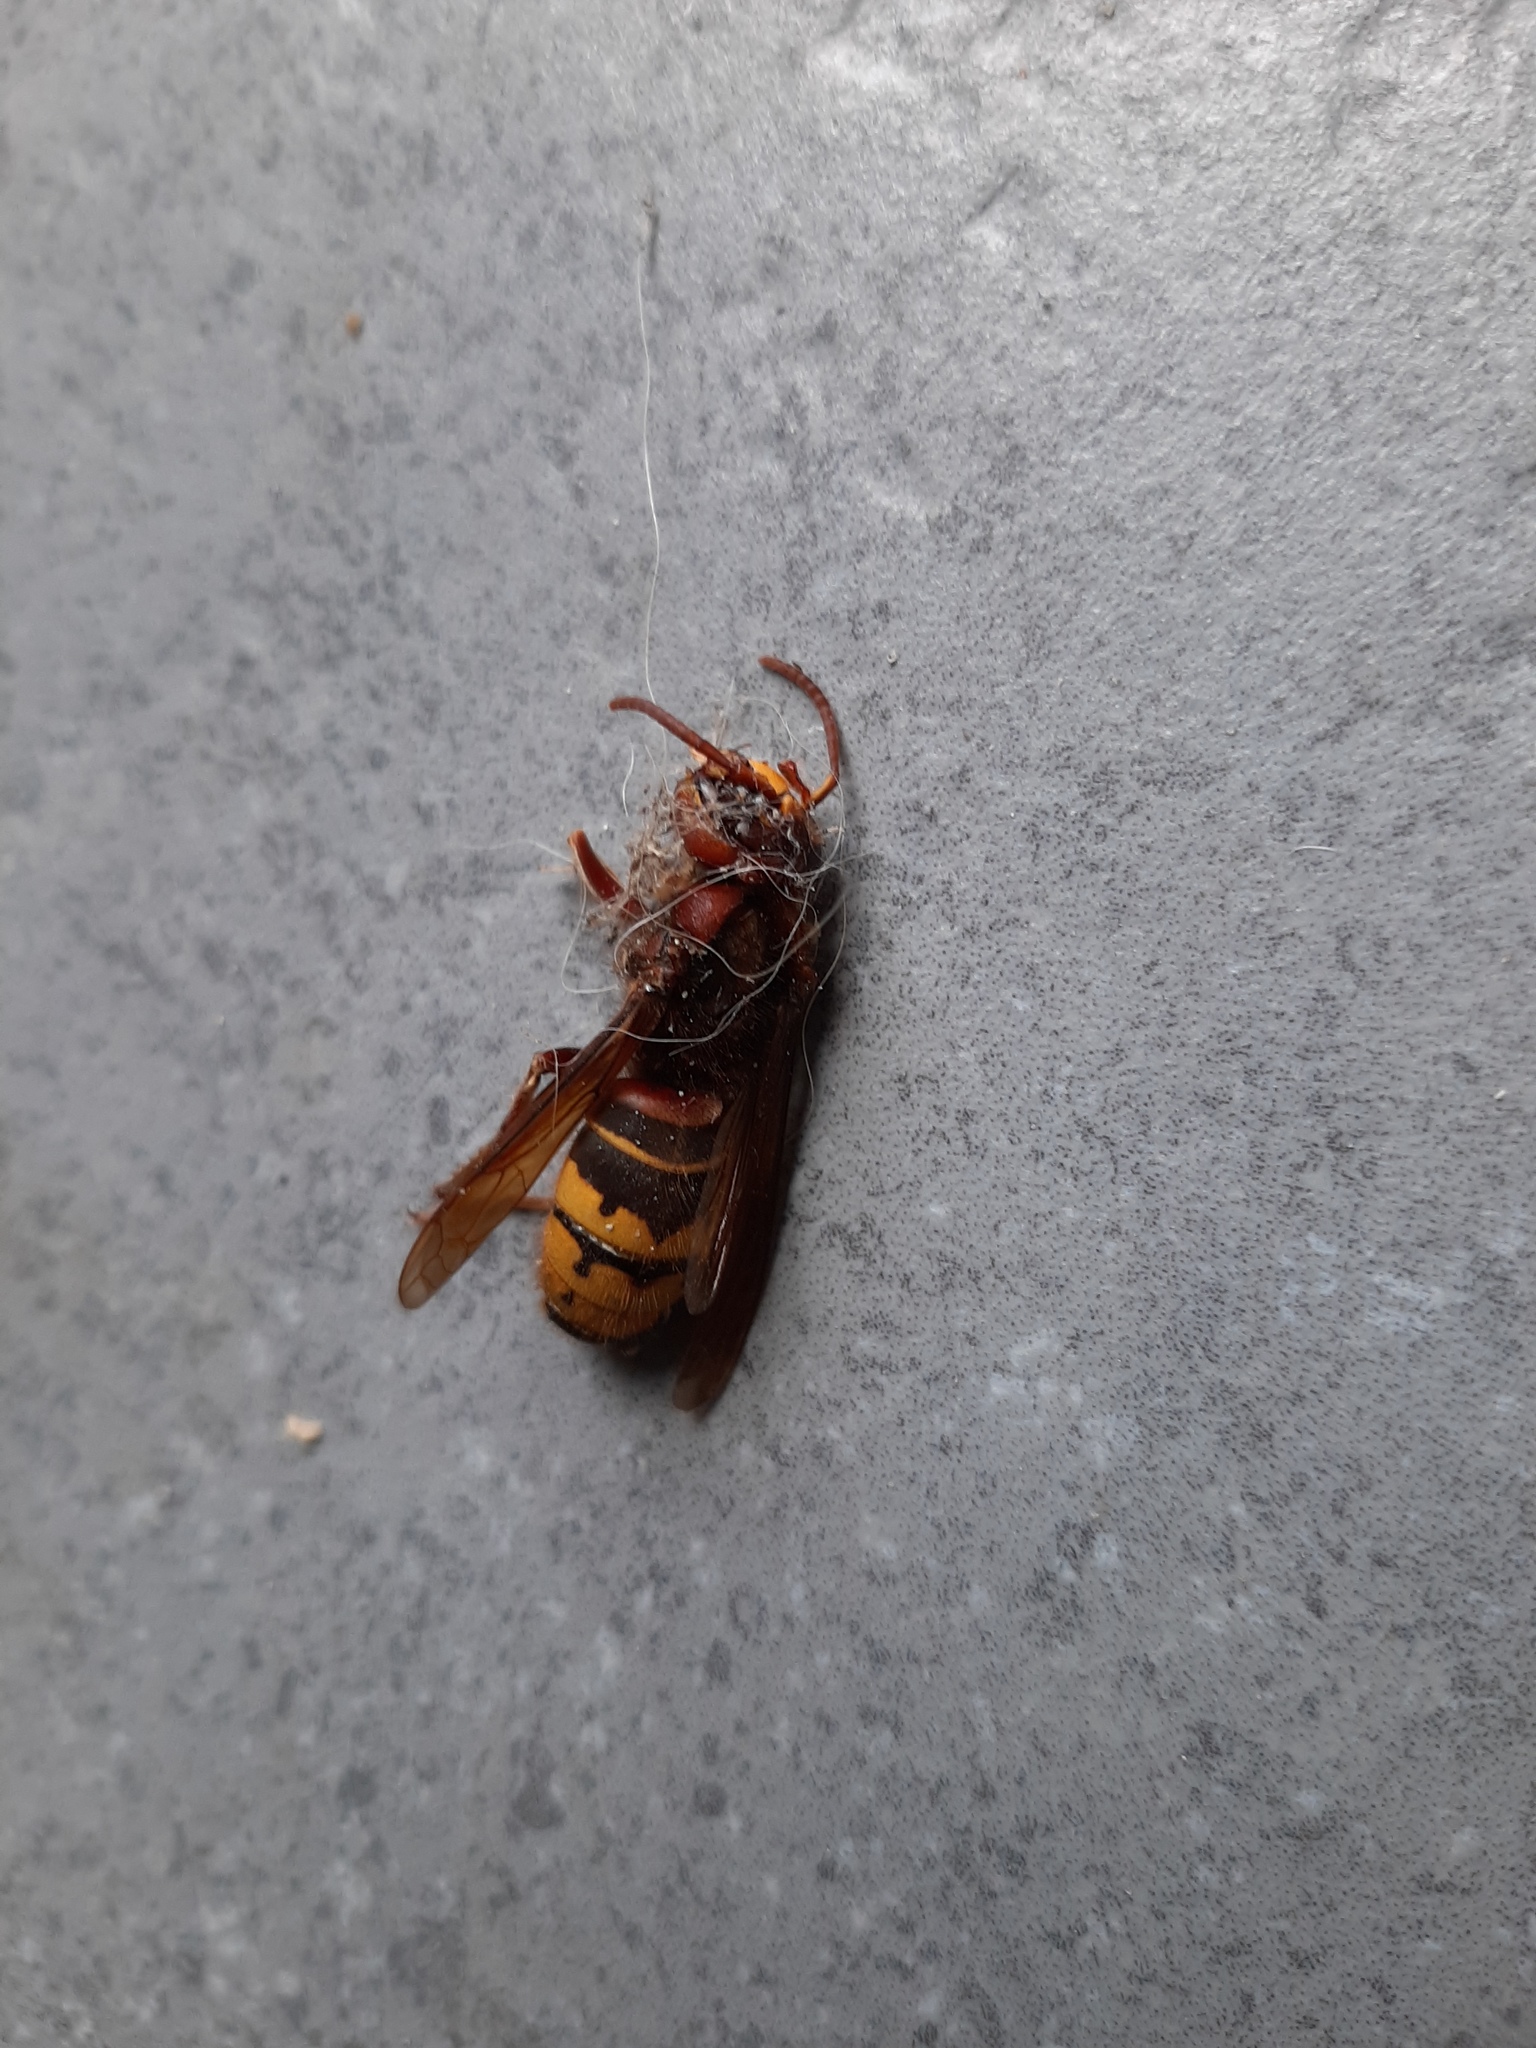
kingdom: Animalia
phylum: Arthropoda
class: Insecta
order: Hymenoptera
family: Vespidae
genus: Vespa
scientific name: Vespa crabro
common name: Hornet
